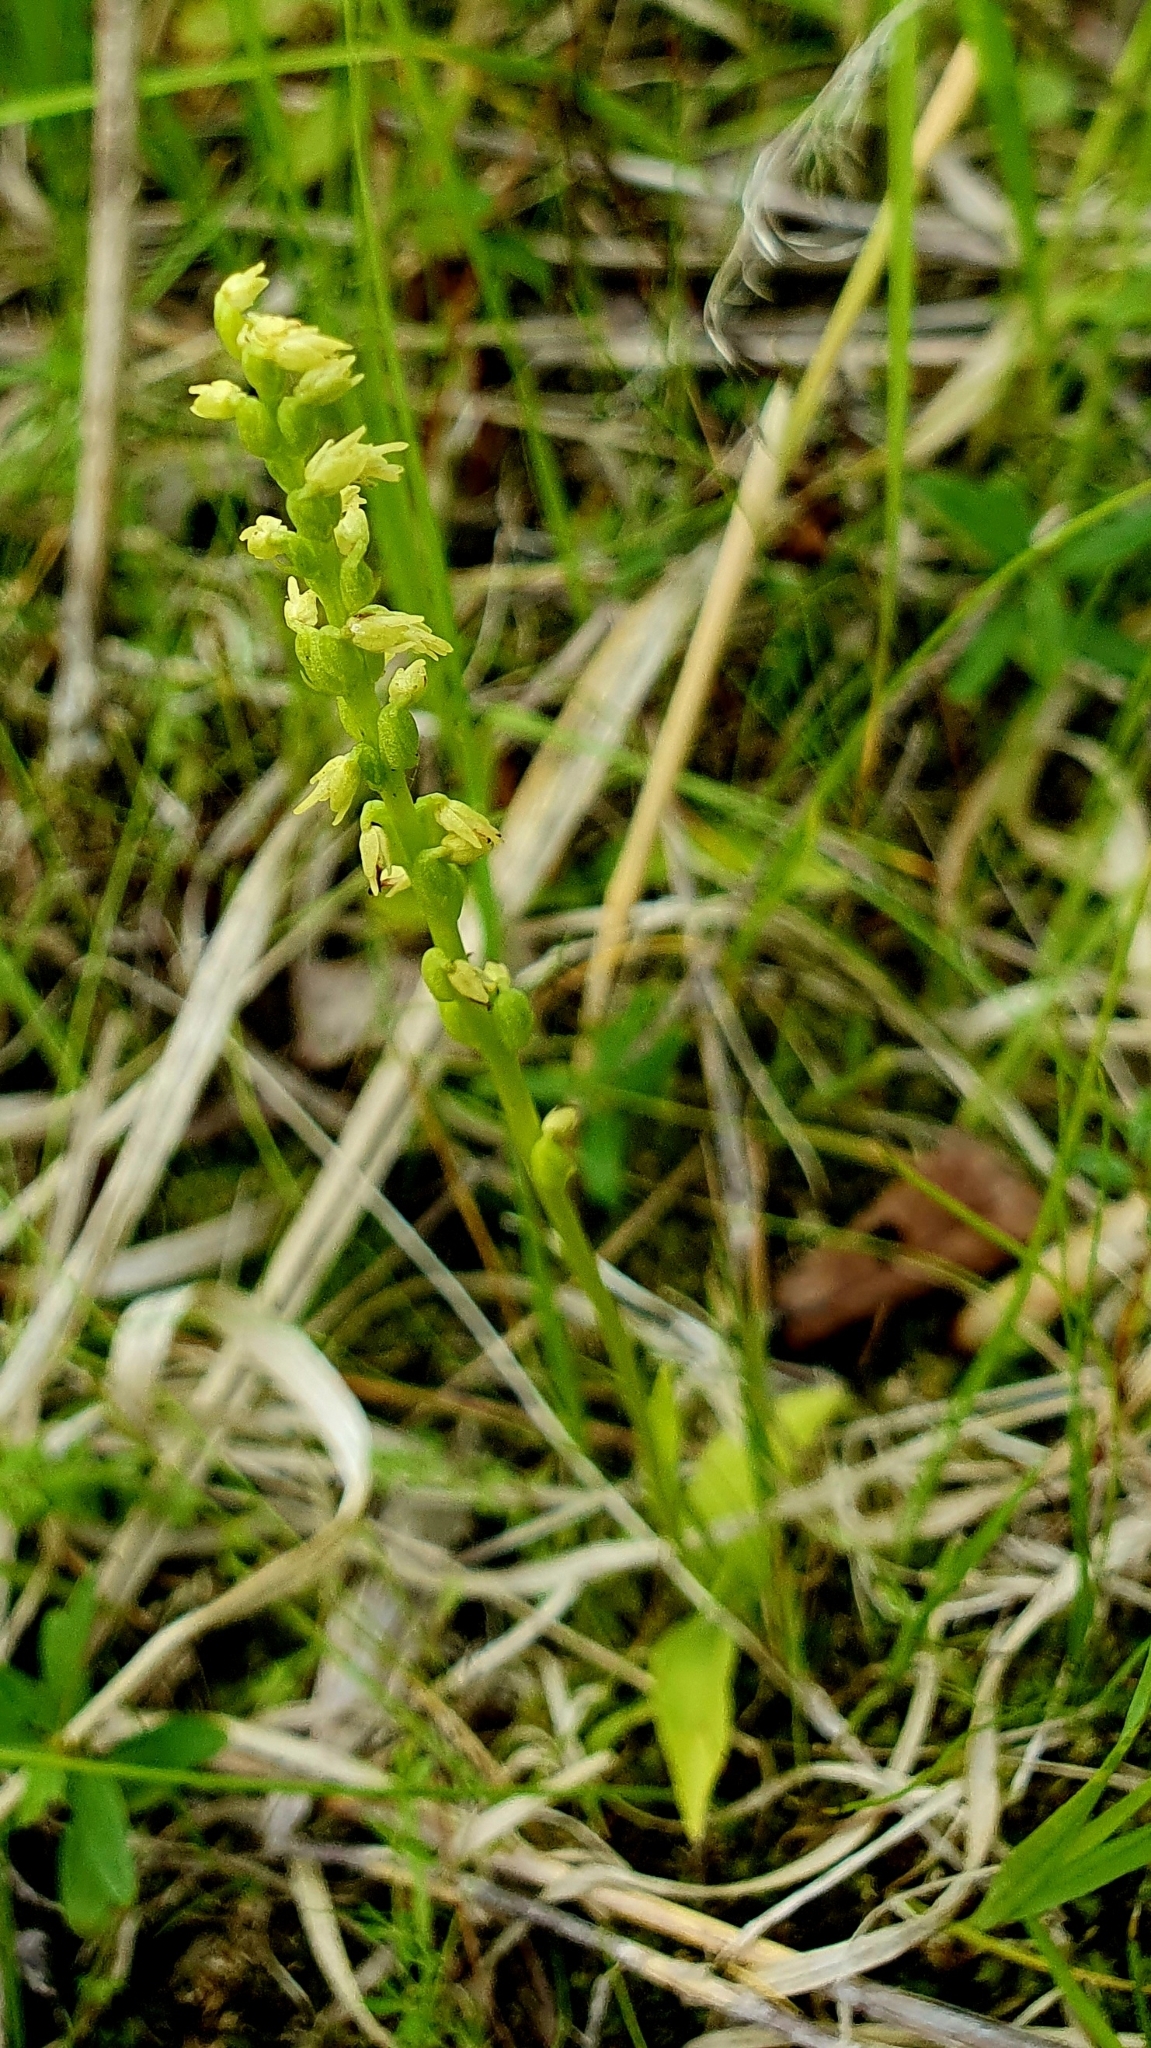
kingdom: Plantae
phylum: Tracheophyta
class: Liliopsida
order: Asparagales
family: Orchidaceae
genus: Herminium
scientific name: Herminium monorchis
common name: Musk orchid
